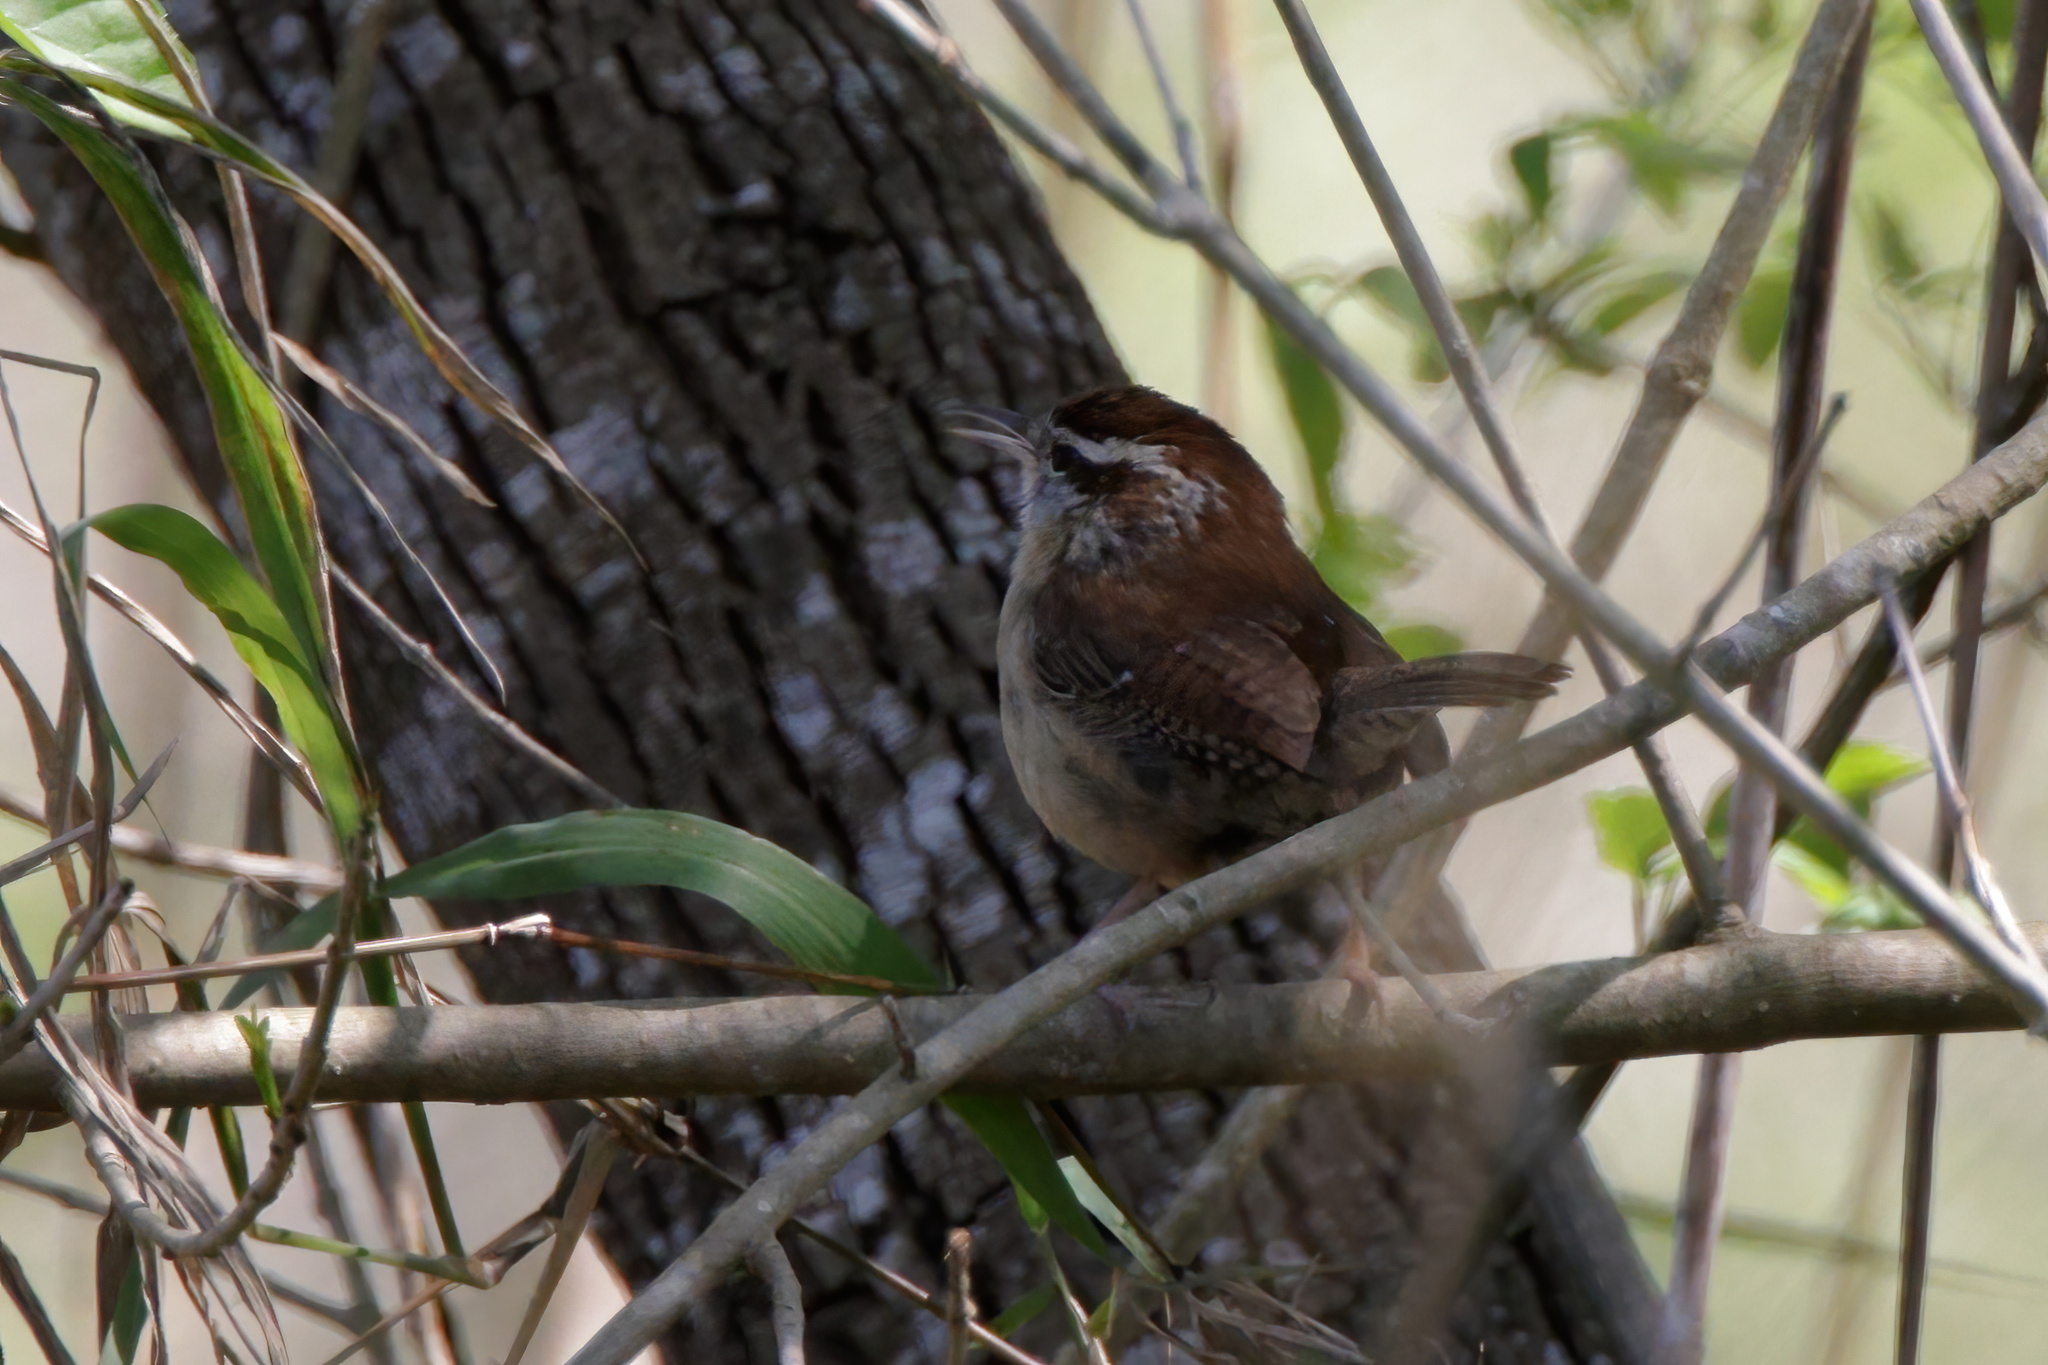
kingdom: Animalia
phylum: Chordata
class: Aves
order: Passeriformes
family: Troglodytidae
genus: Thryothorus
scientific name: Thryothorus ludovicianus
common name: Carolina wren
